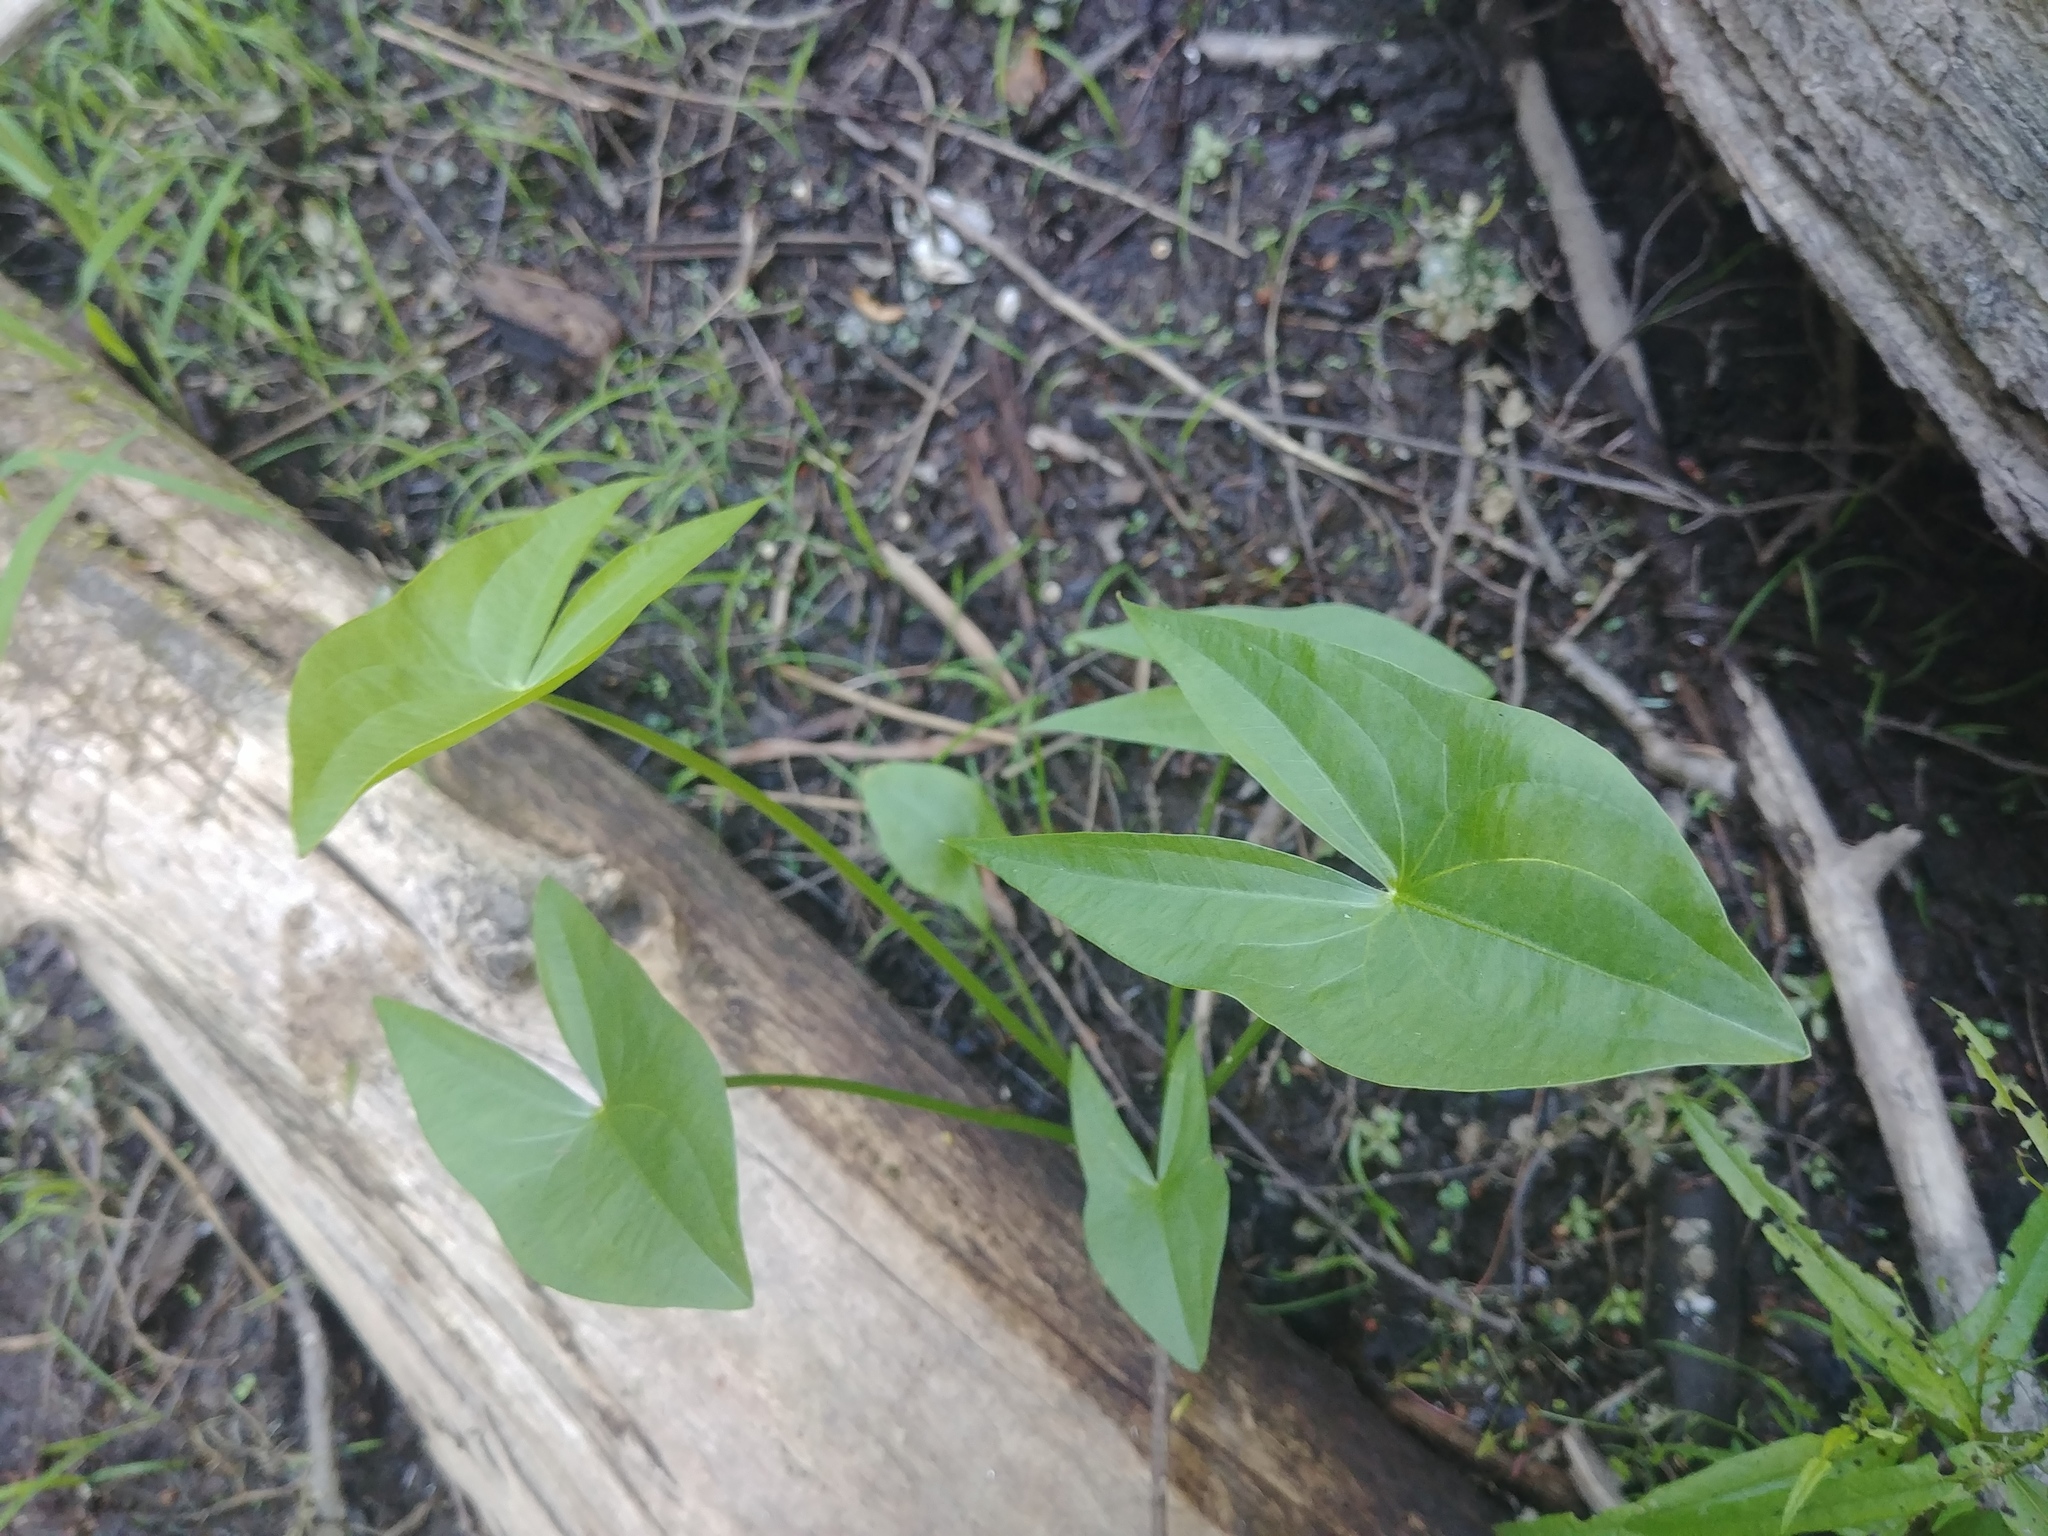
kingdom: Plantae
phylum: Tracheophyta
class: Liliopsida
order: Alismatales
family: Alismataceae
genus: Sagittaria
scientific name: Sagittaria latifolia
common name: Duck-potato
